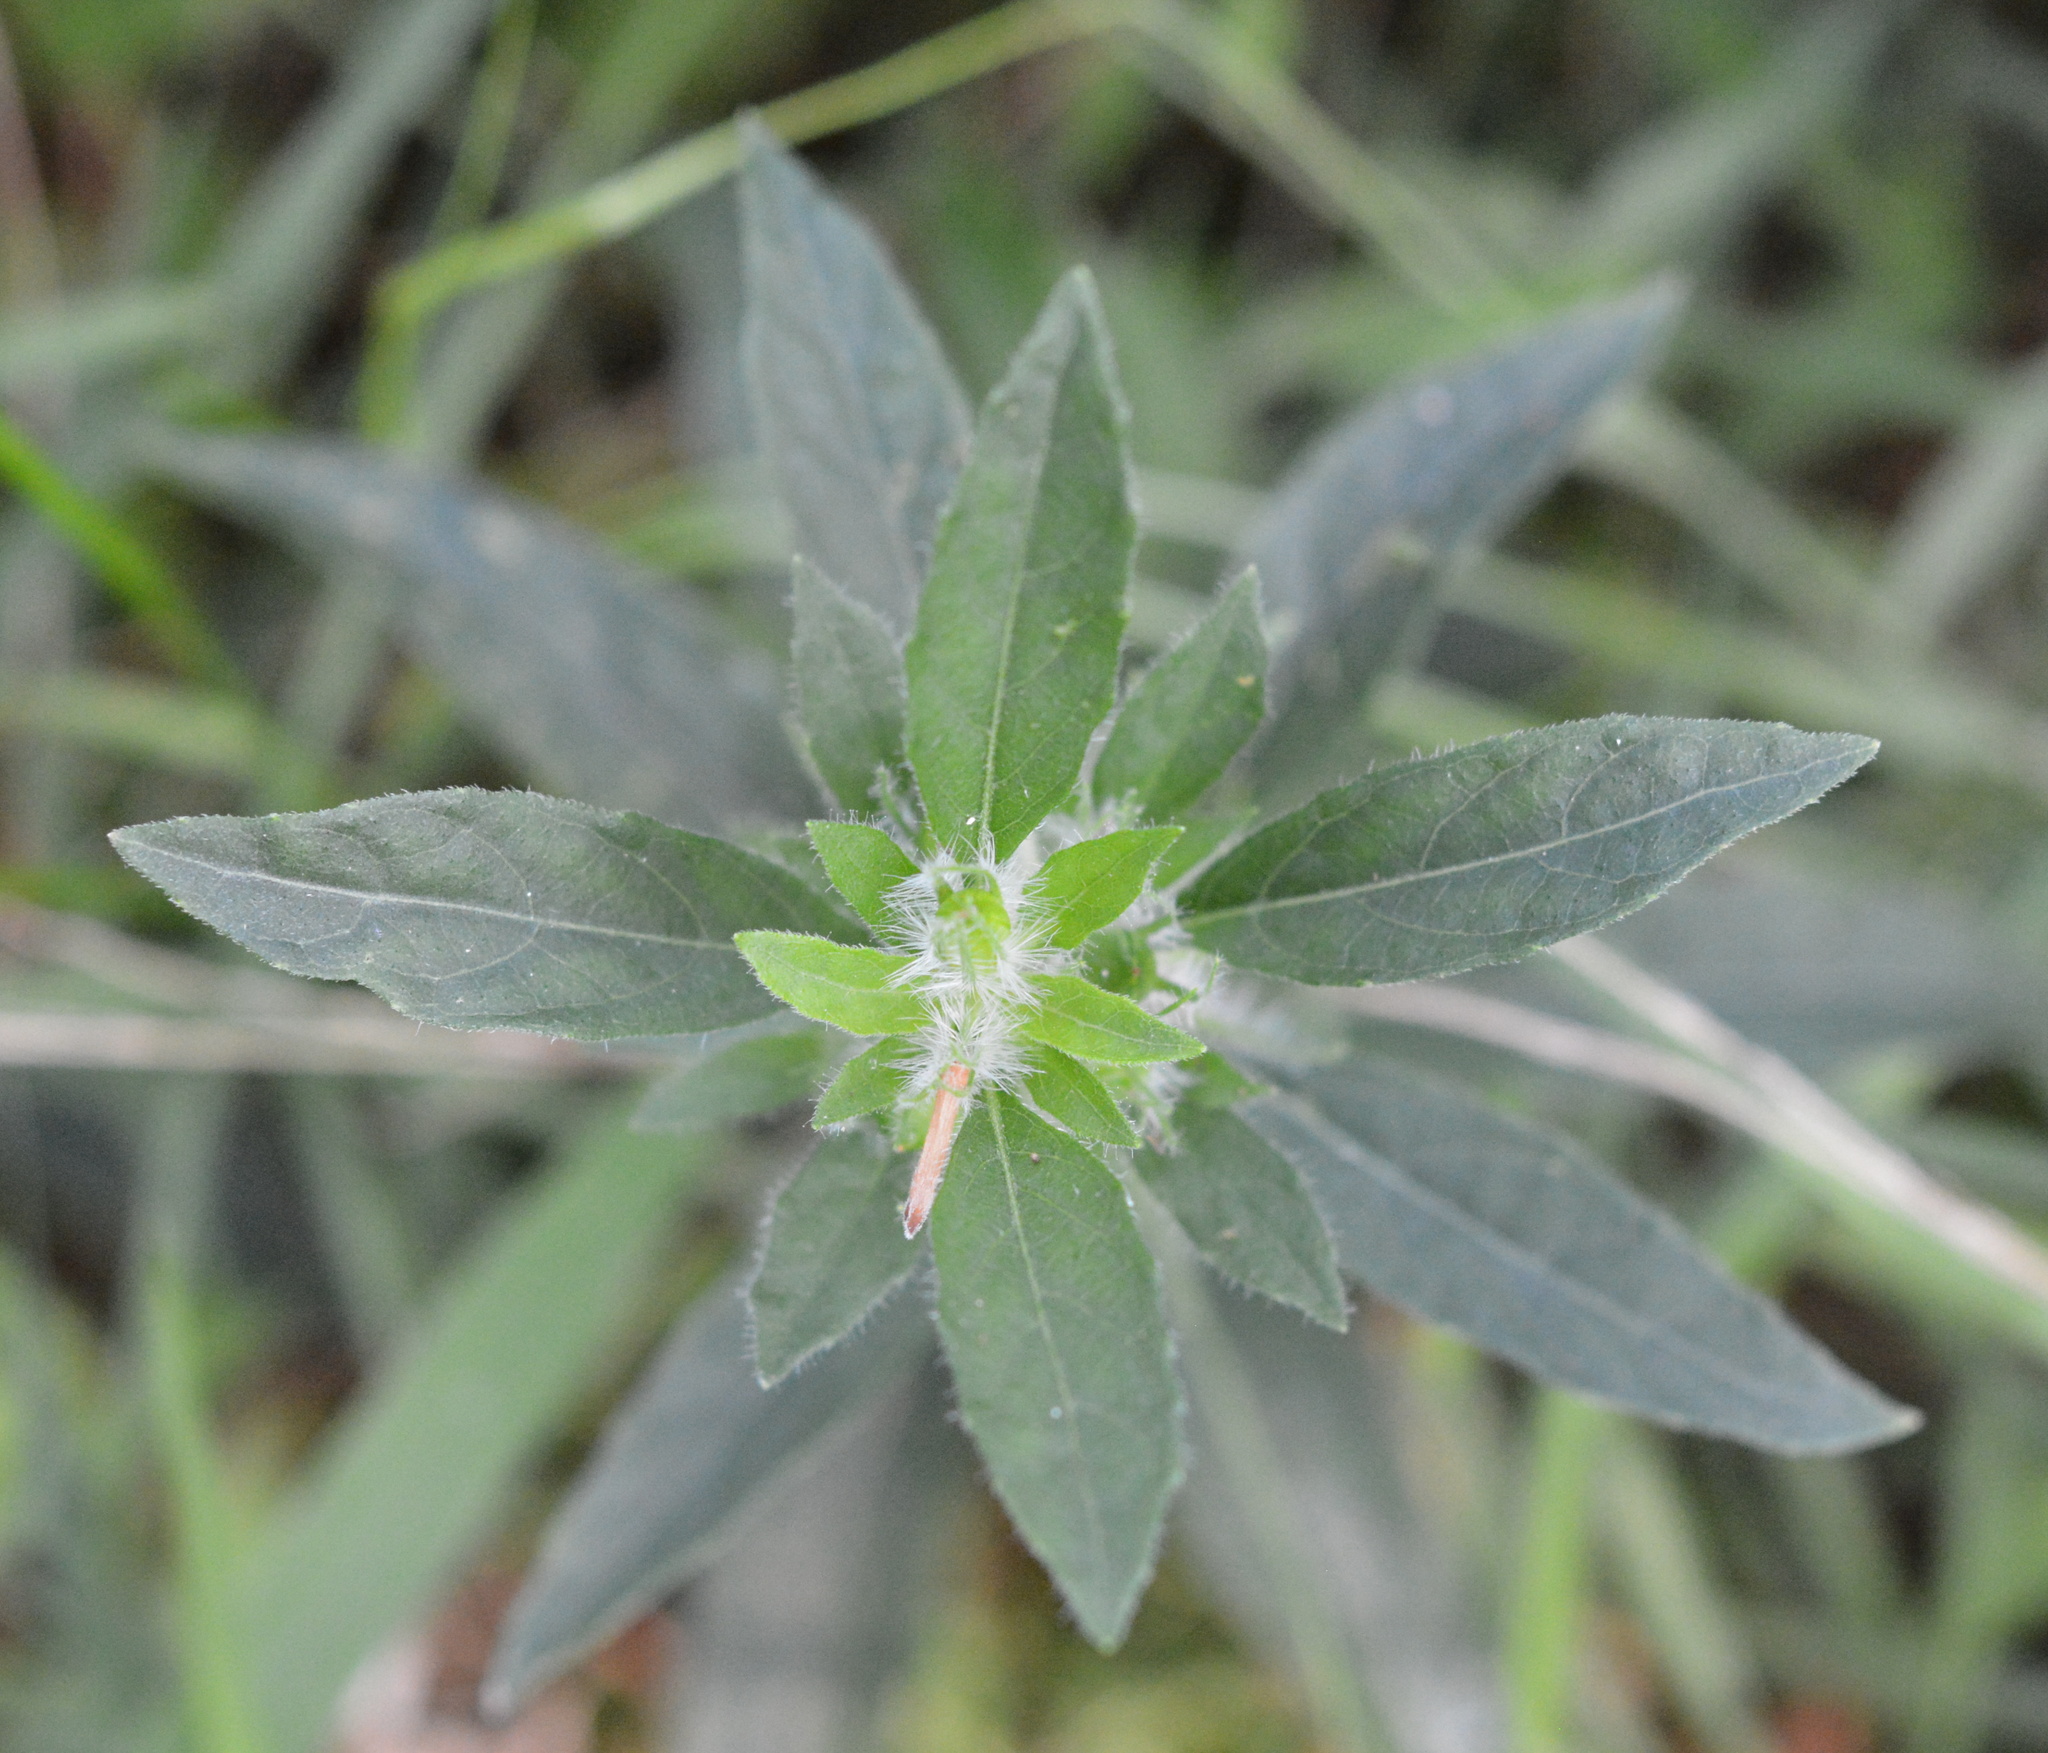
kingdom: Plantae
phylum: Tracheophyta
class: Magnoliopsida
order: Lamiales
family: Acanthaceae
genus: Ruellia
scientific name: Ruellia caroliniensis
